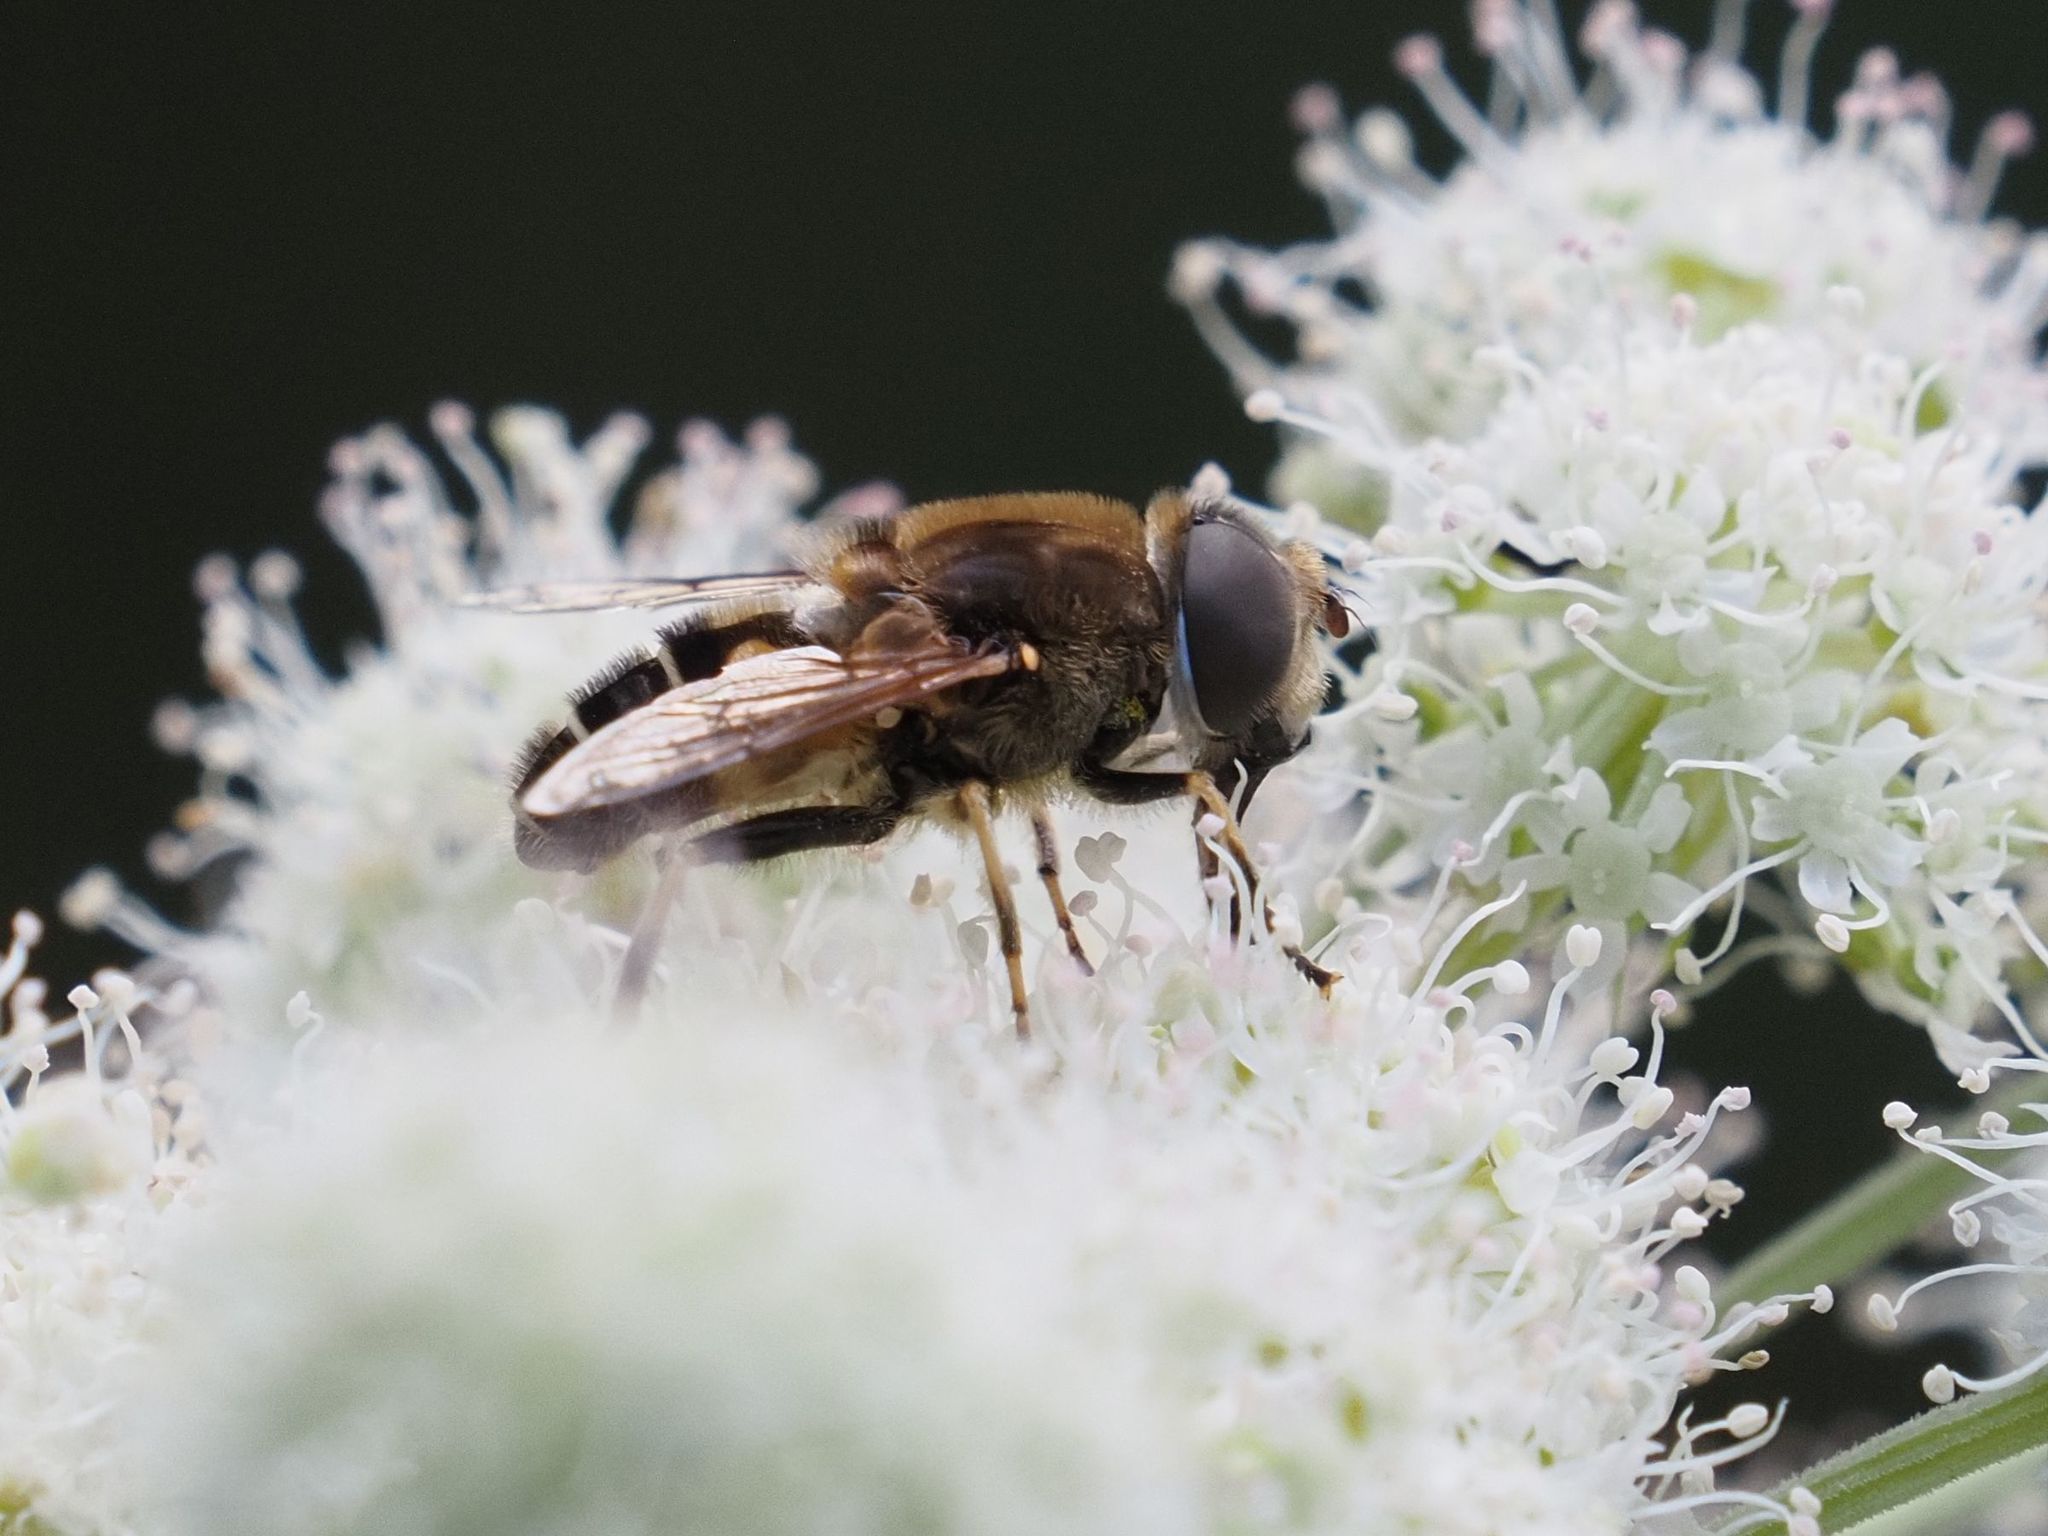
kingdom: Animalia
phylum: Arthropoda
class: Insecta
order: Diptera
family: Syrphidae
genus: Eristalis
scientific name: Eristalis nemorum
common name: Orange-spined drone fly
